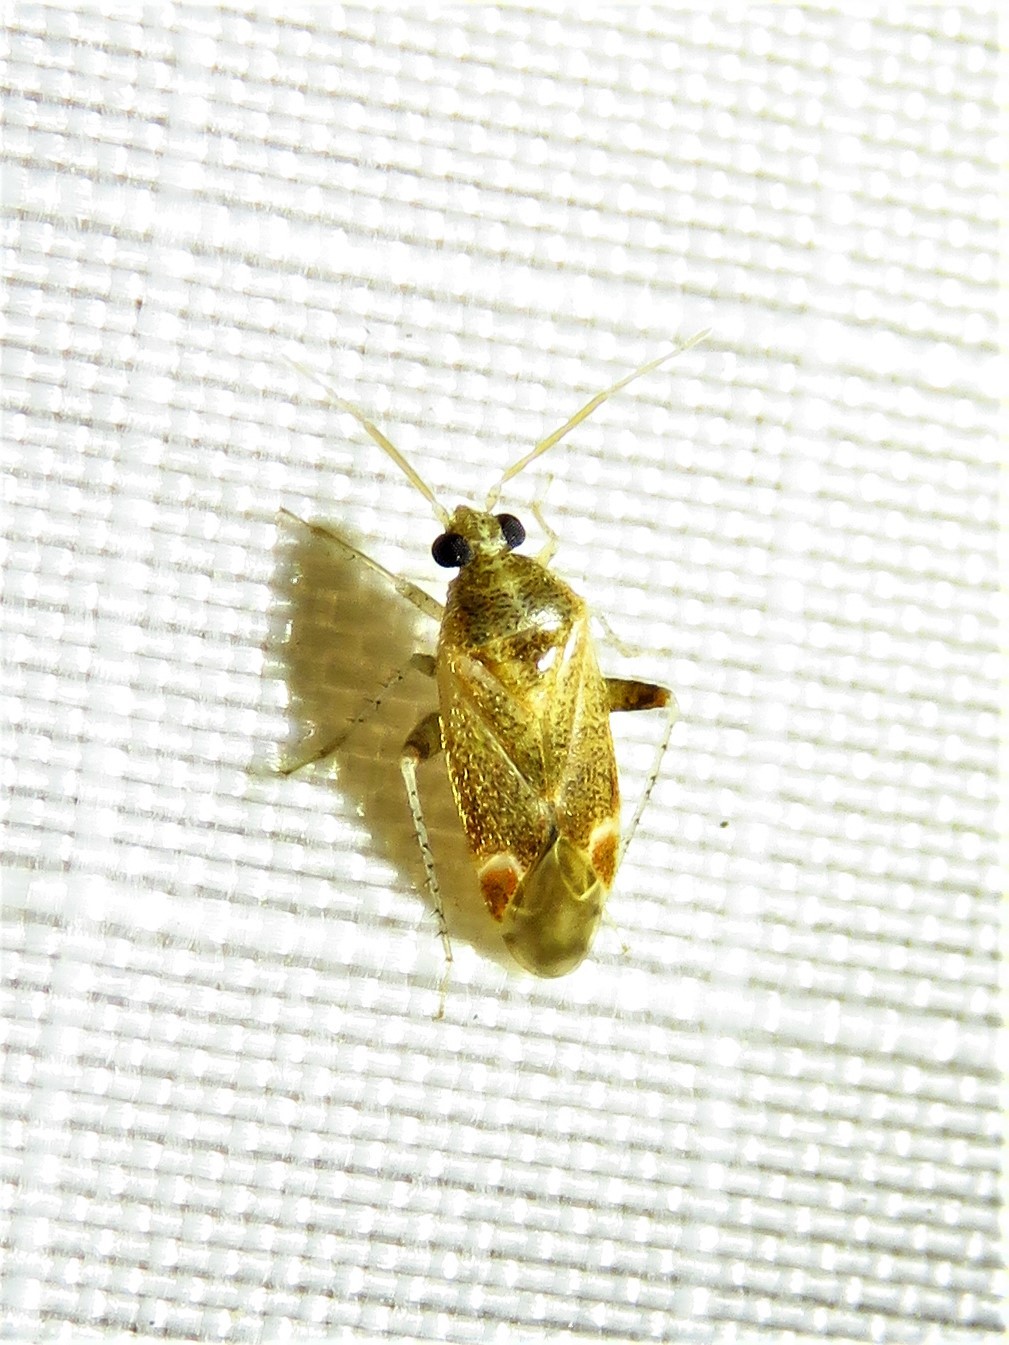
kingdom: Animalia
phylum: Arthropoda
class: Insecta
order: Hemiptera
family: Miridae
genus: Hamatophylus
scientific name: Hamatophylus guttulosus
